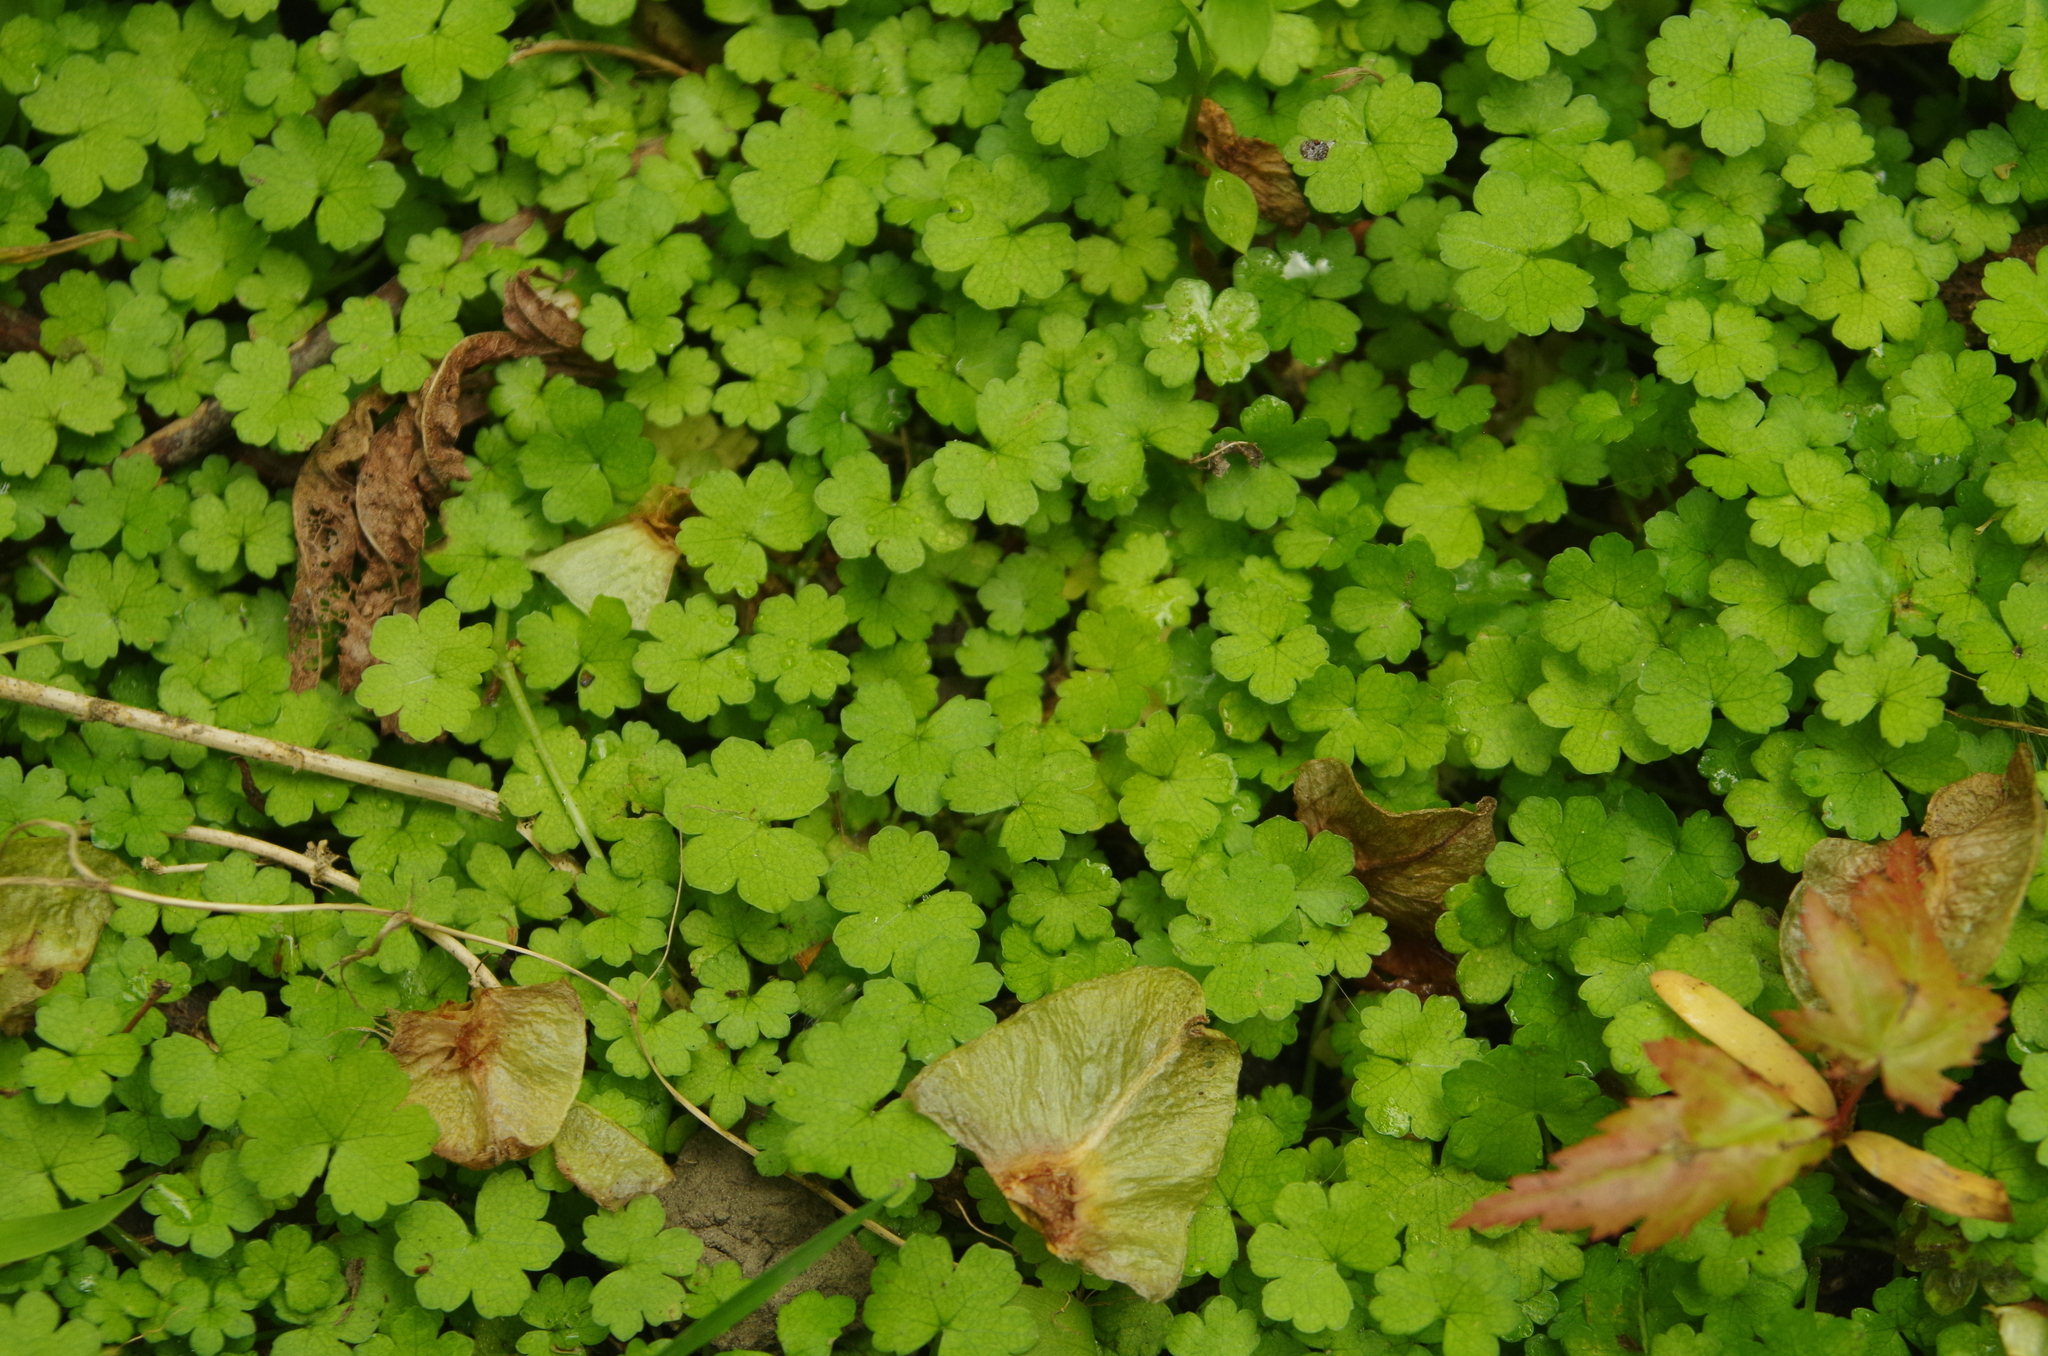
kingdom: Plantae
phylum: Tracheophyta
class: Magnoliopsida
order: Apiales
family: Araliaceae
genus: Hydrocotyle
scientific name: Hydrocotyle heteromeria
